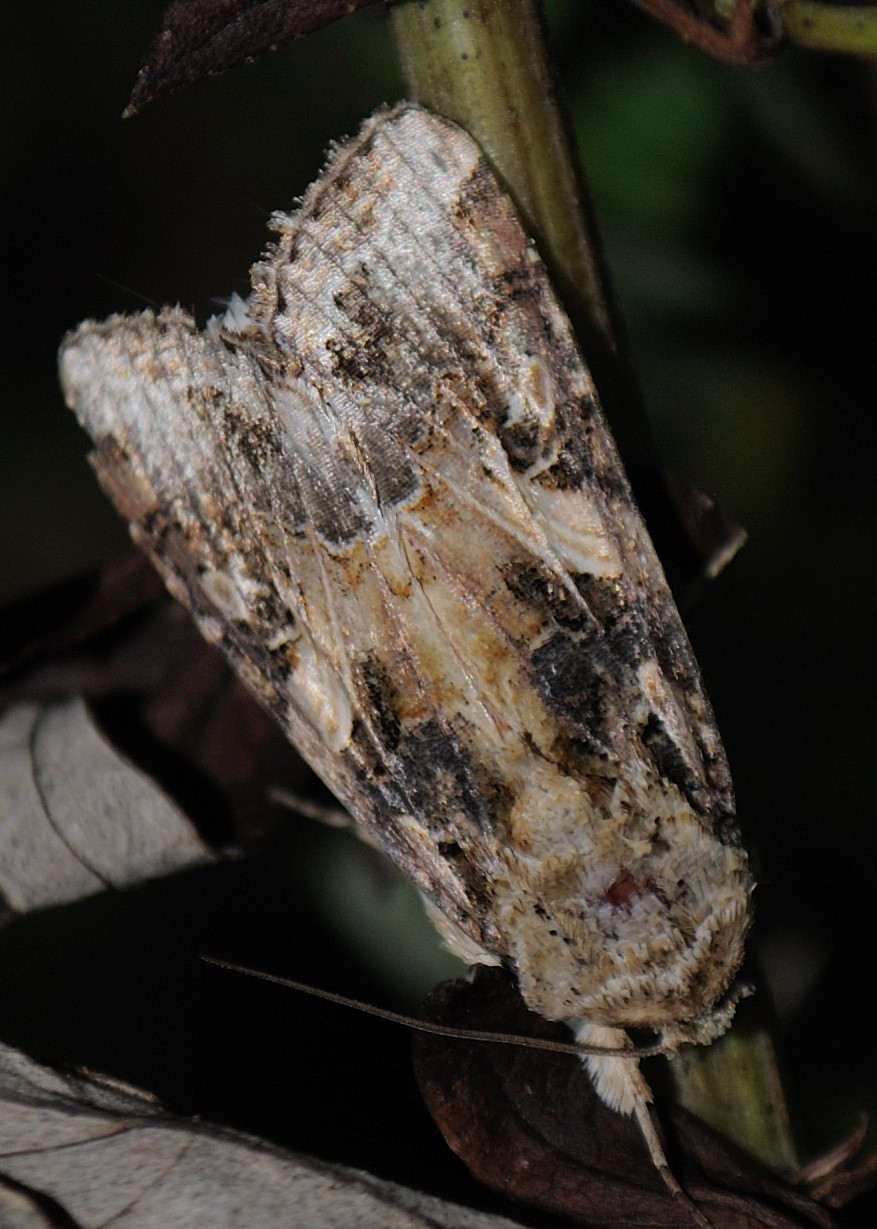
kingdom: Animalia
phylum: Arthropoda
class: Insecta
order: Lepidoptera
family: Noctuidae
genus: Spodoptera
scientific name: Spodoptera ornithogalli
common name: Yellow-striped armyworm
